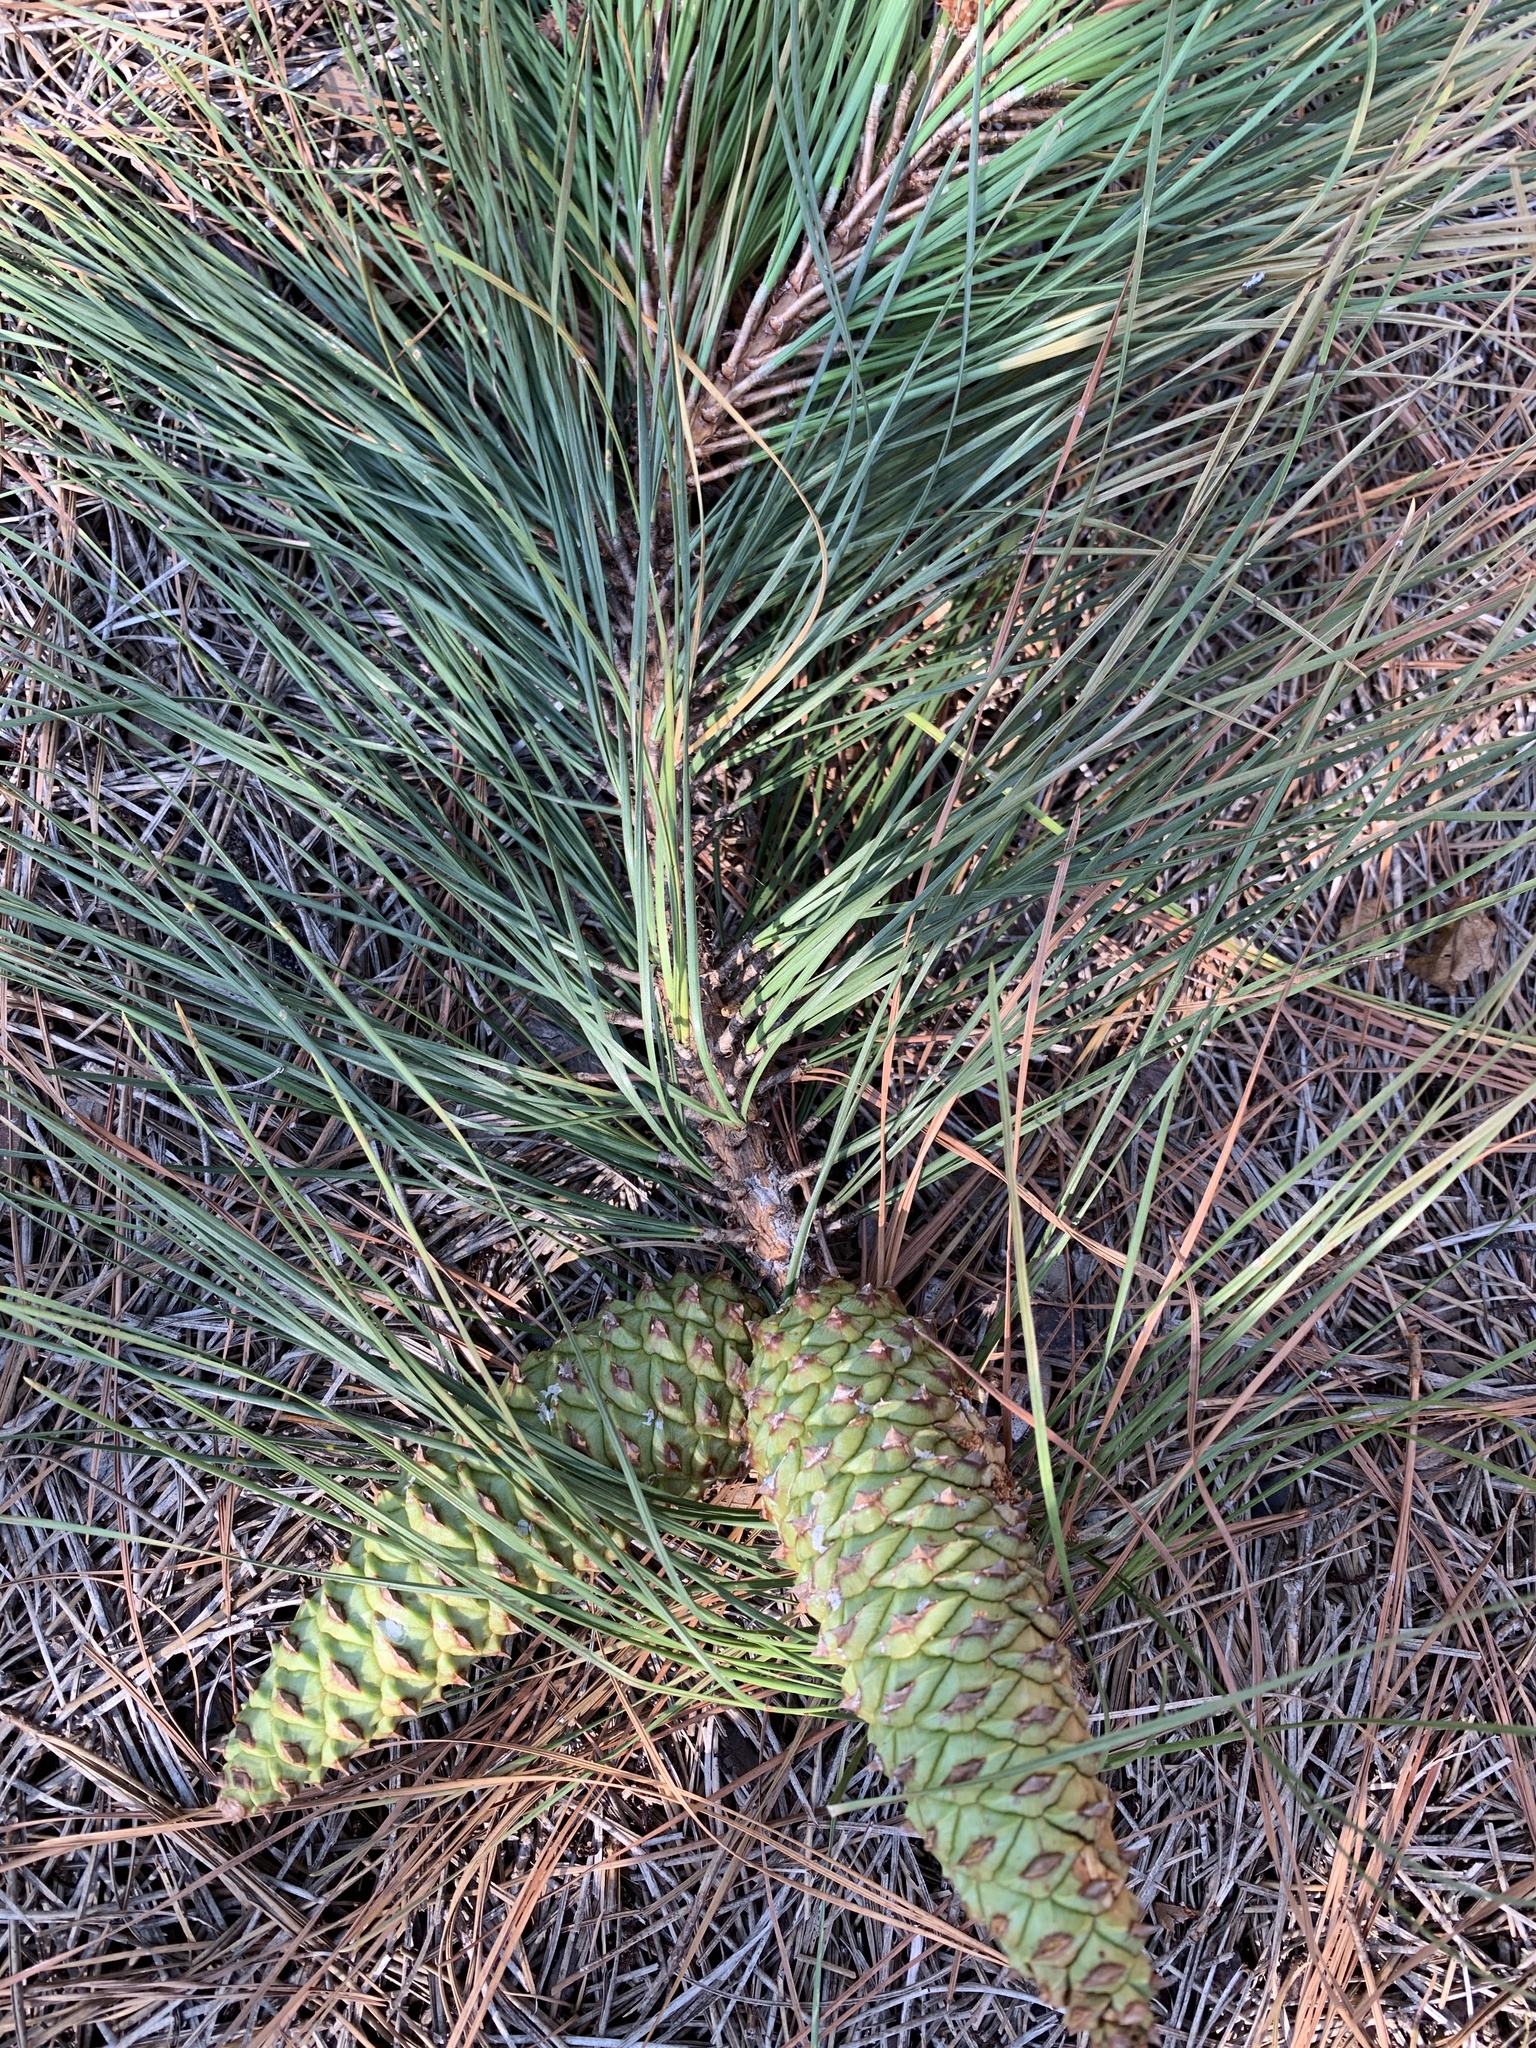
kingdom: Plantae
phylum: Tracheophyta
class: Pinopsida
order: Pinales
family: Pinaceae
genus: Pinus
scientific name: Pinus palustris
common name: Longleaf pine
